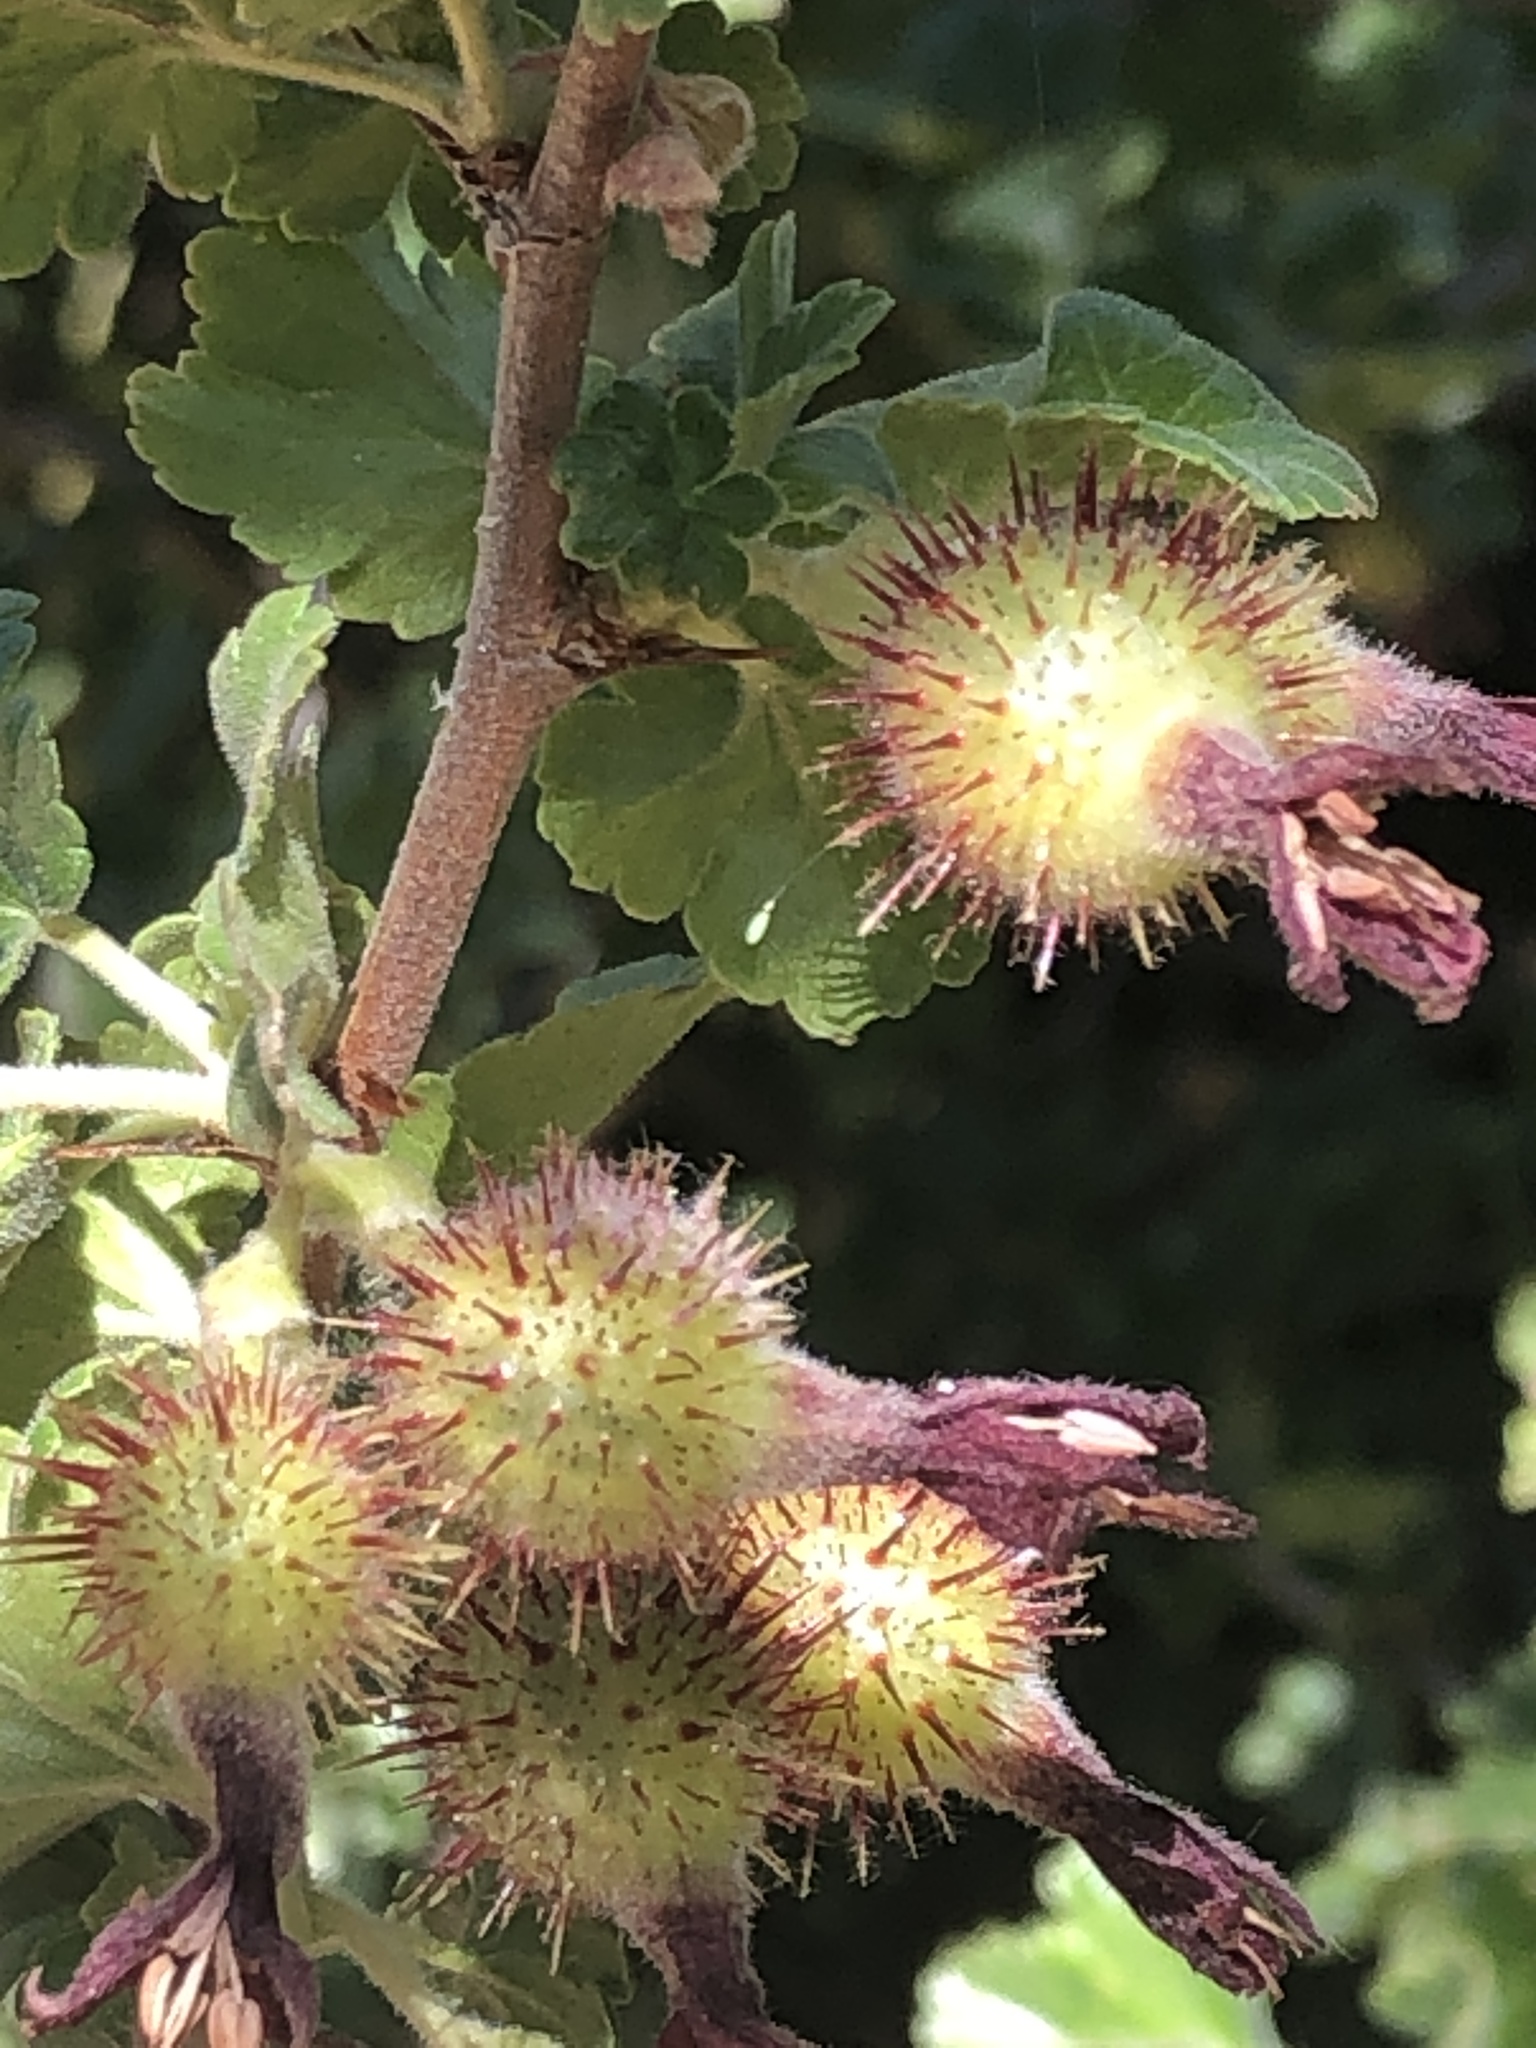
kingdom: Plantae
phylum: Tracheophyta
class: Magnoliopsida
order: Saxifragales
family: Grossulariaceae
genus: Ribes
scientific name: Ribes roezlii
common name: Sierra gooseberry
